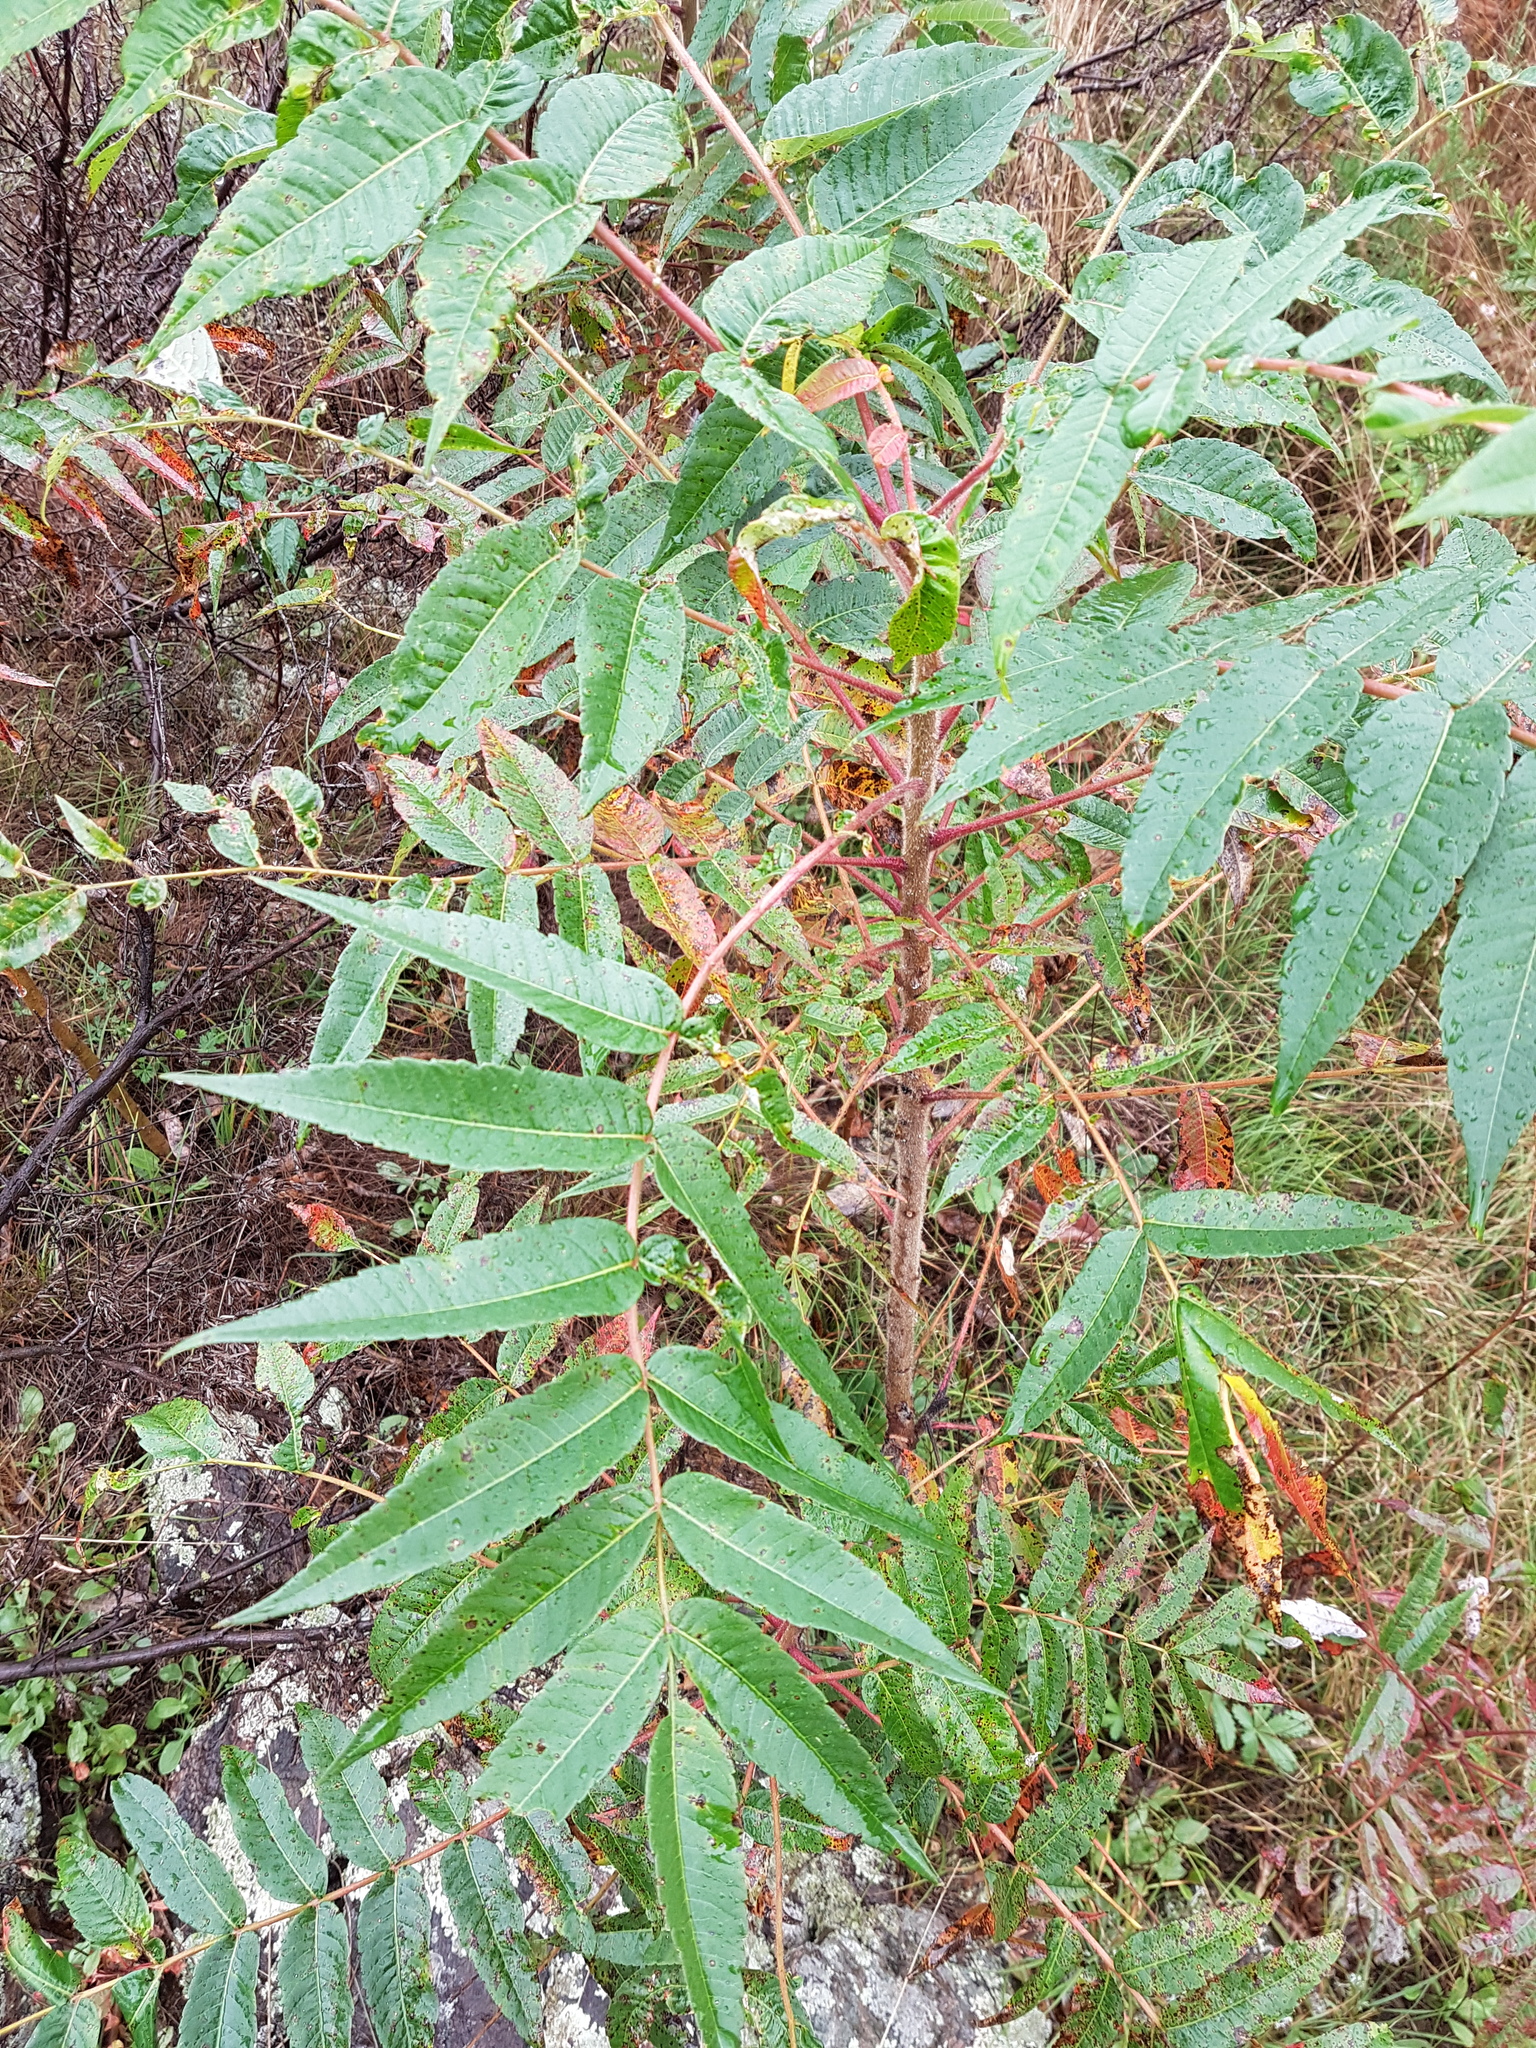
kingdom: Plantae
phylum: Tracheophyta
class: Magnoliopsida
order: Sapindales
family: Anacardiaceae
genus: Rhus
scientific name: Rhus typhina
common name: Staghorn sumac
